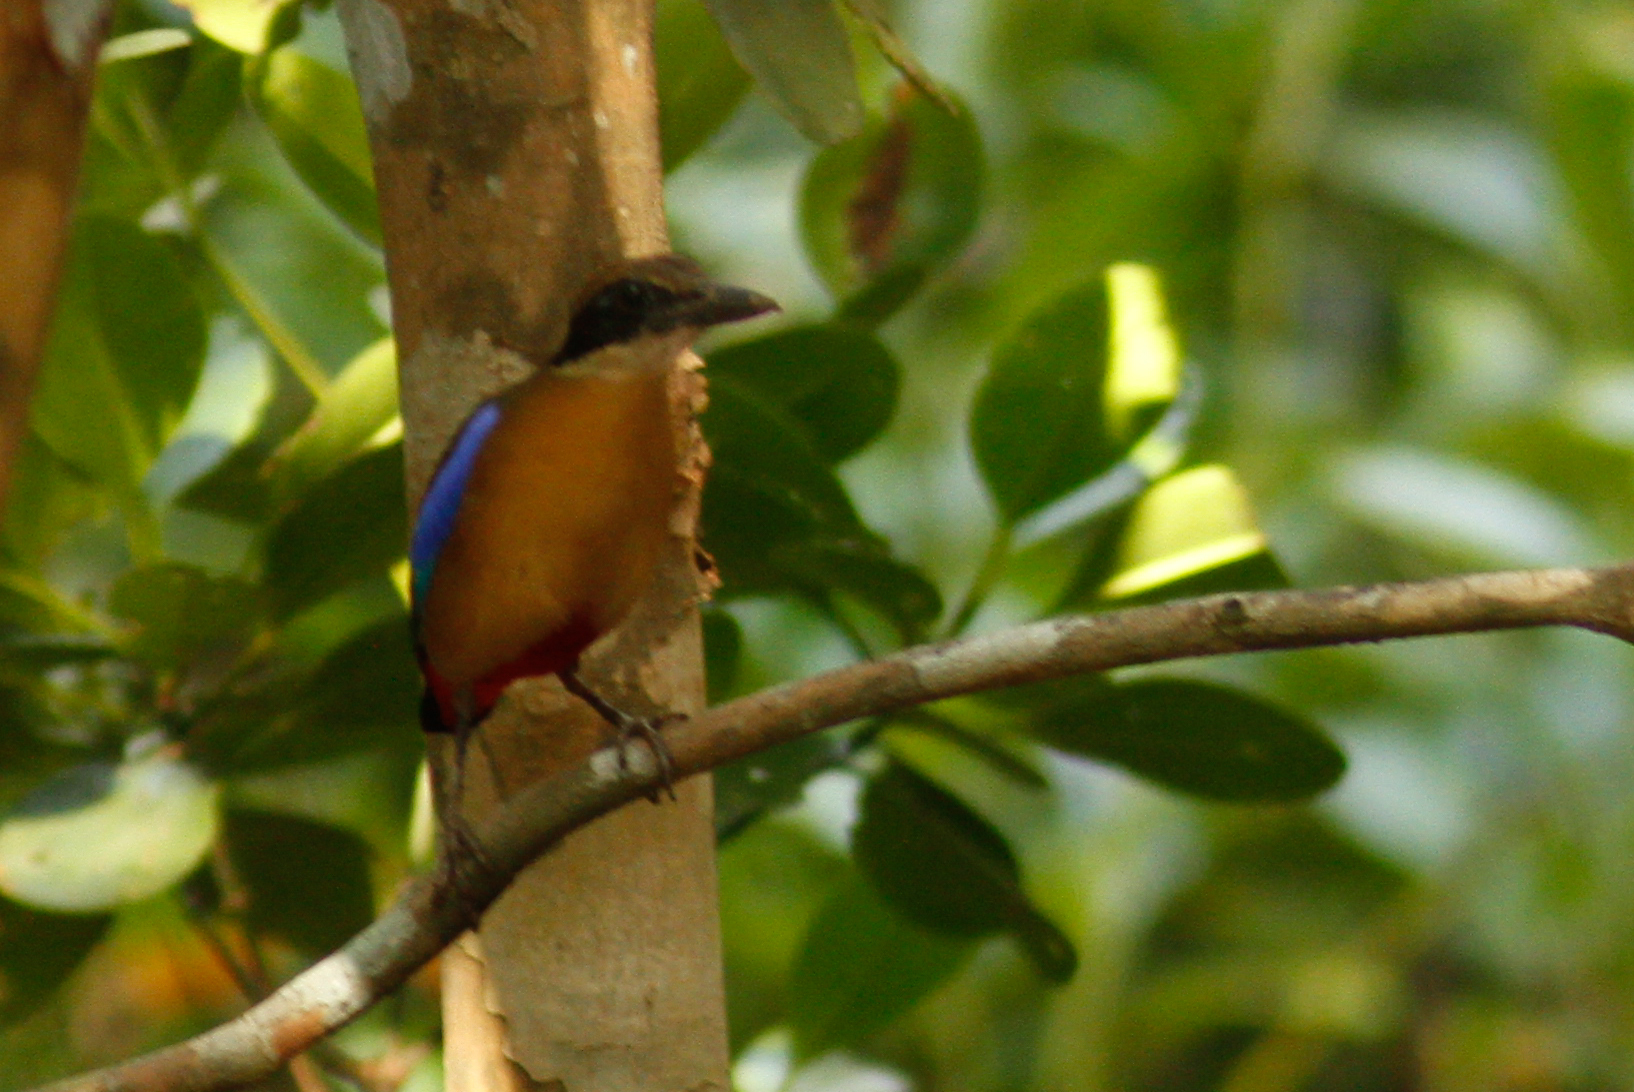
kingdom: Animalia
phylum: Chordata
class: Aves
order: Passeriformes
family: Pittidae
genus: Pitta
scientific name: Pitta megarhyncha
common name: Mangrove pitta
